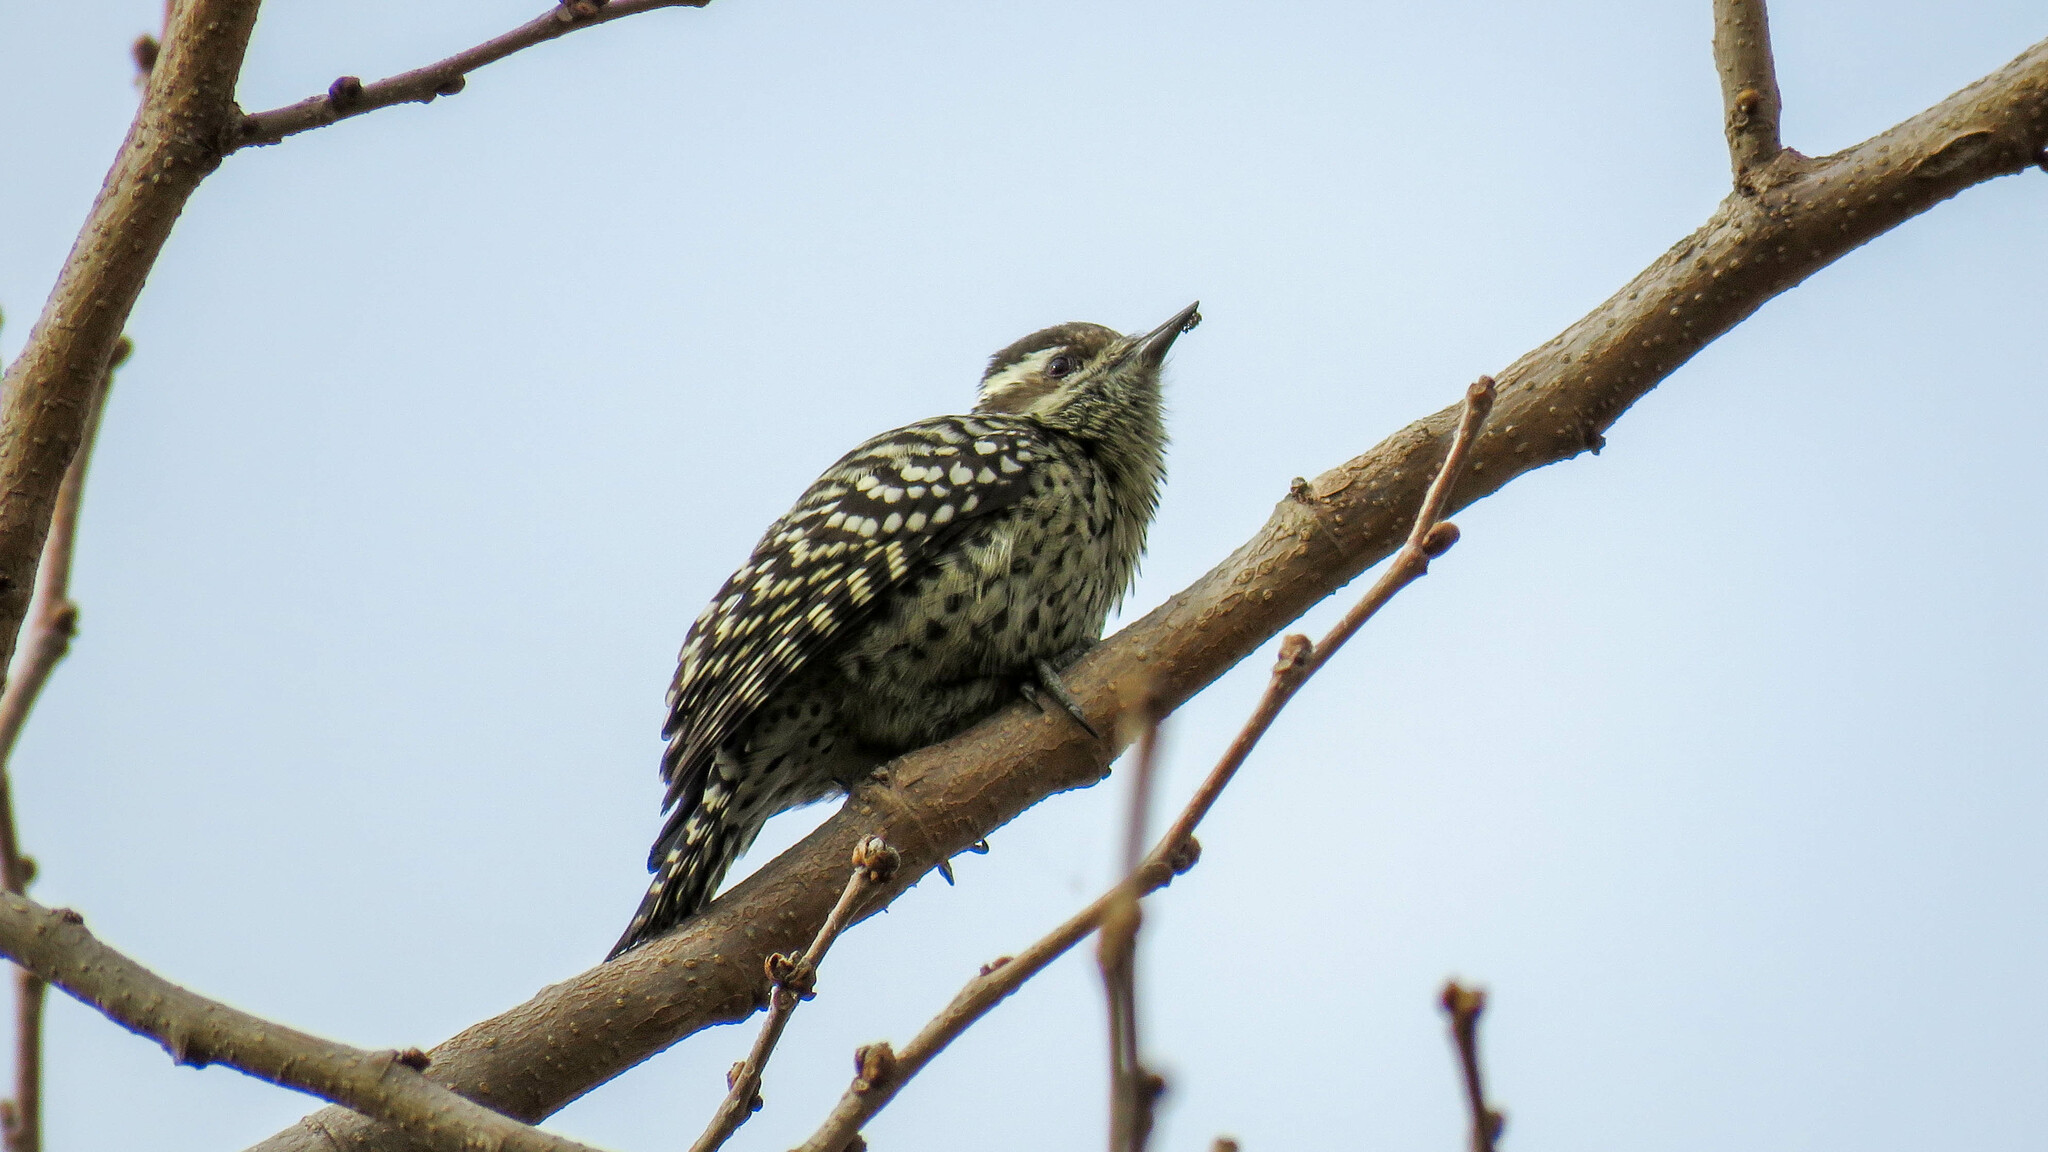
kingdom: Animalia
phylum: Chordata
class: Aves
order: Piciformes
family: Picidae
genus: Veniliornis
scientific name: Veniliornis mixtus
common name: Checkered woodpecker
